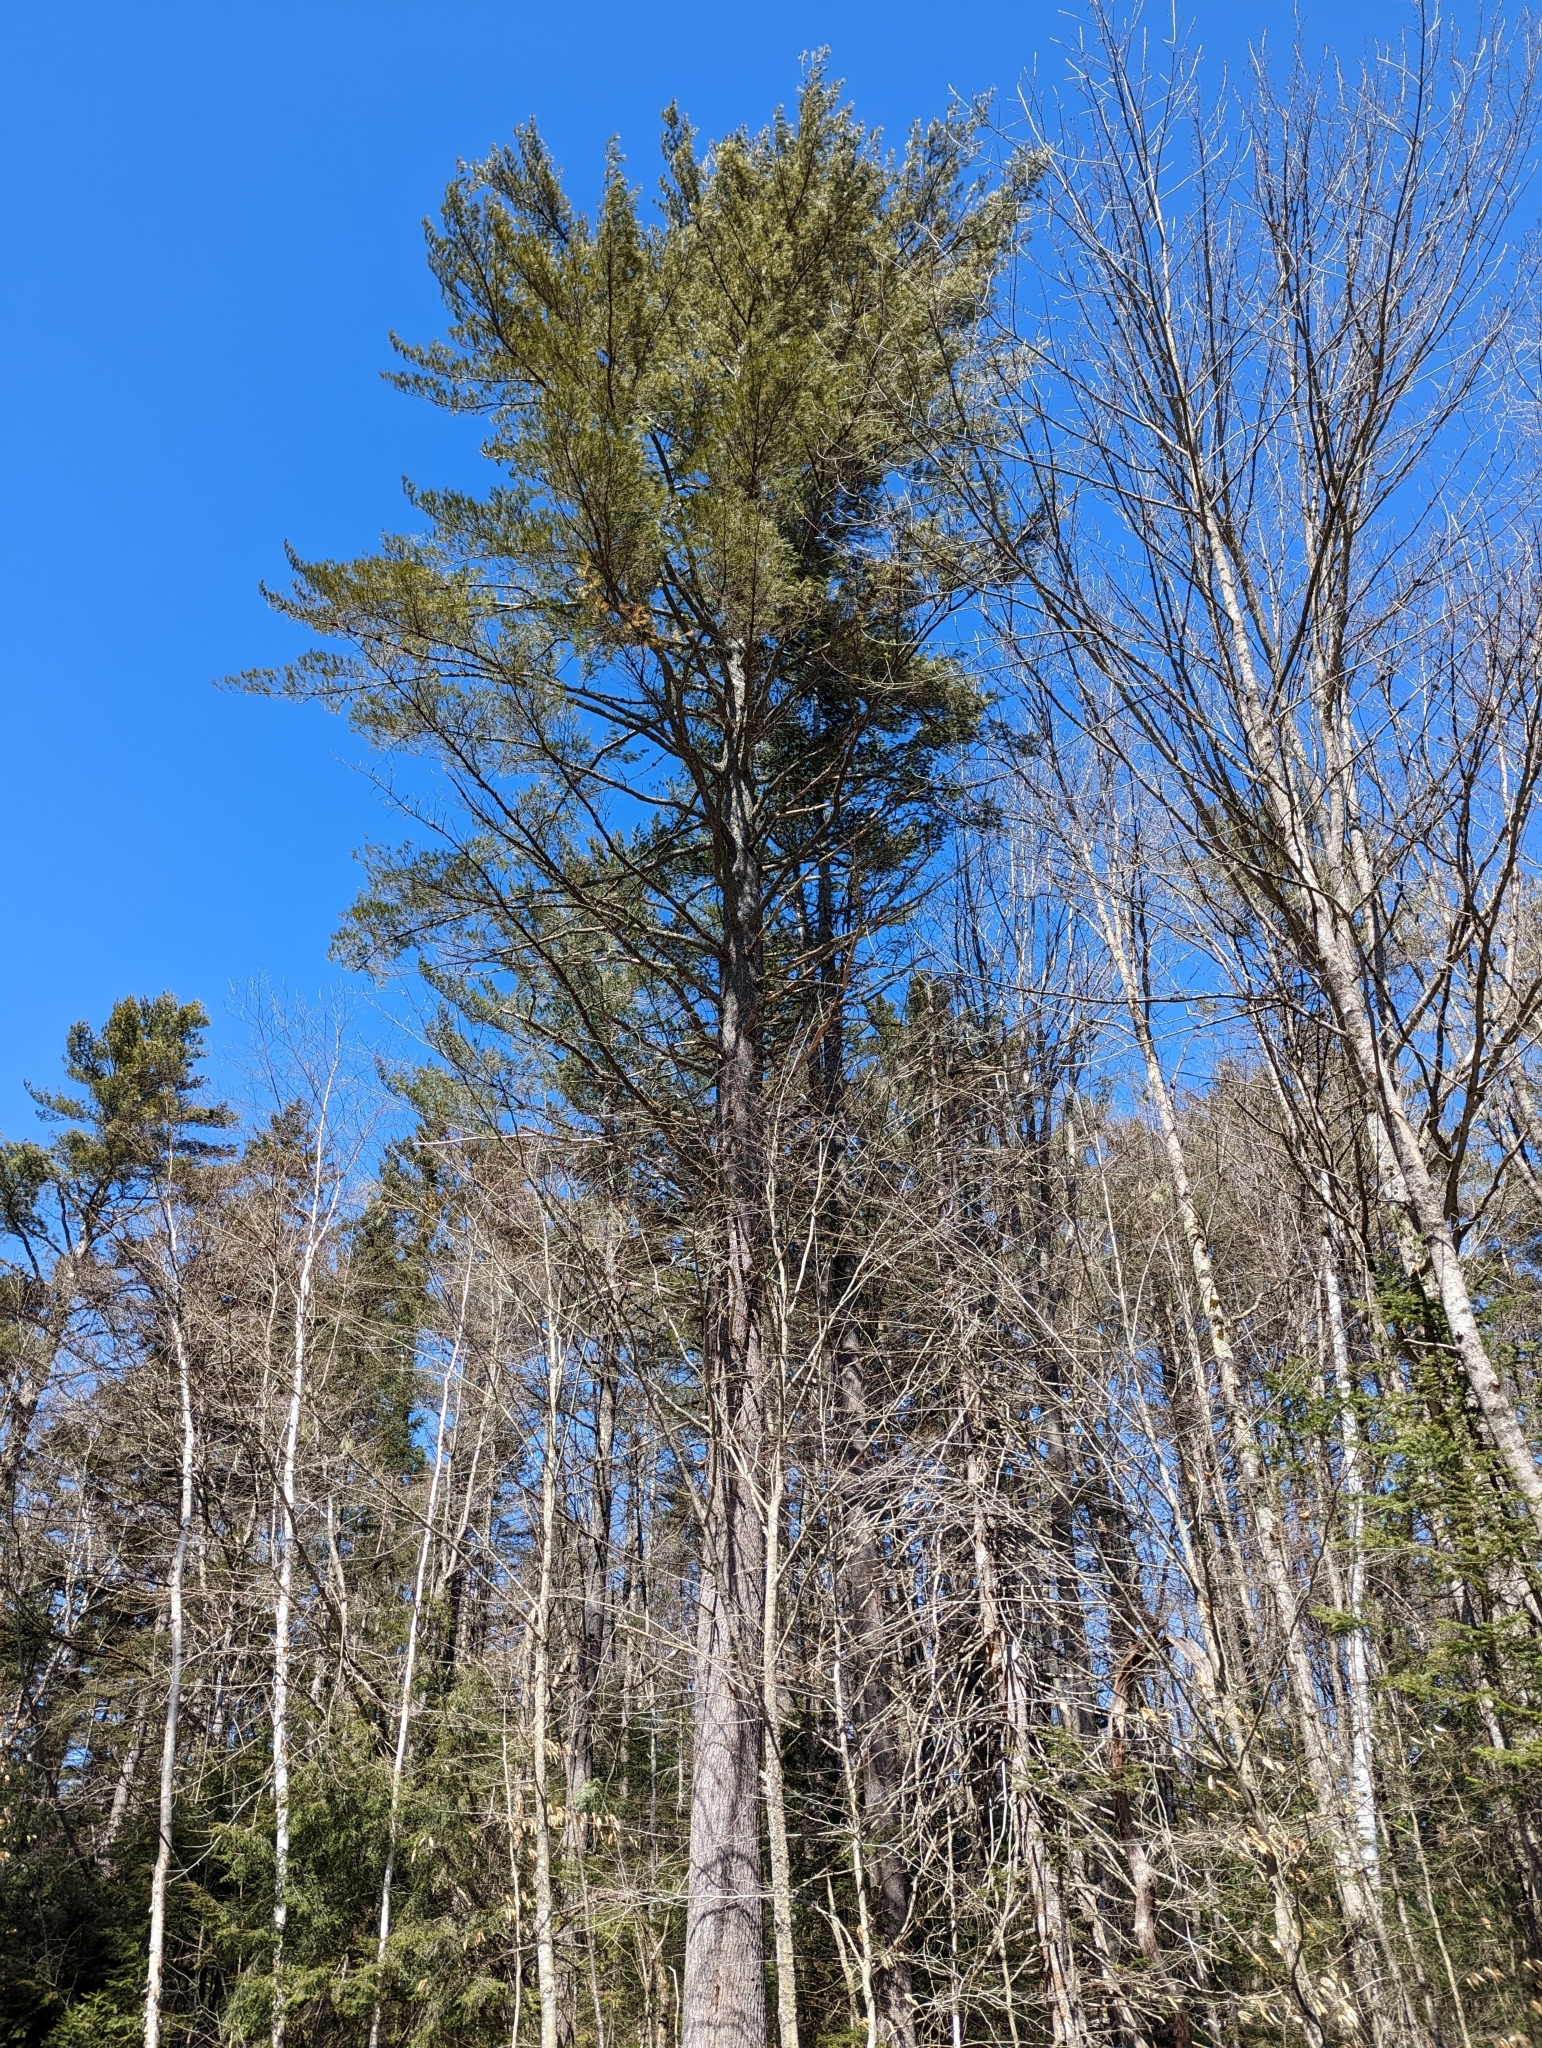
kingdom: Plantae
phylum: Tracheophyta
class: Pinopsida
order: Pinales
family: Pinaceae
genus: Pinus
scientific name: Pinus strobus
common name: Weymouth pine
